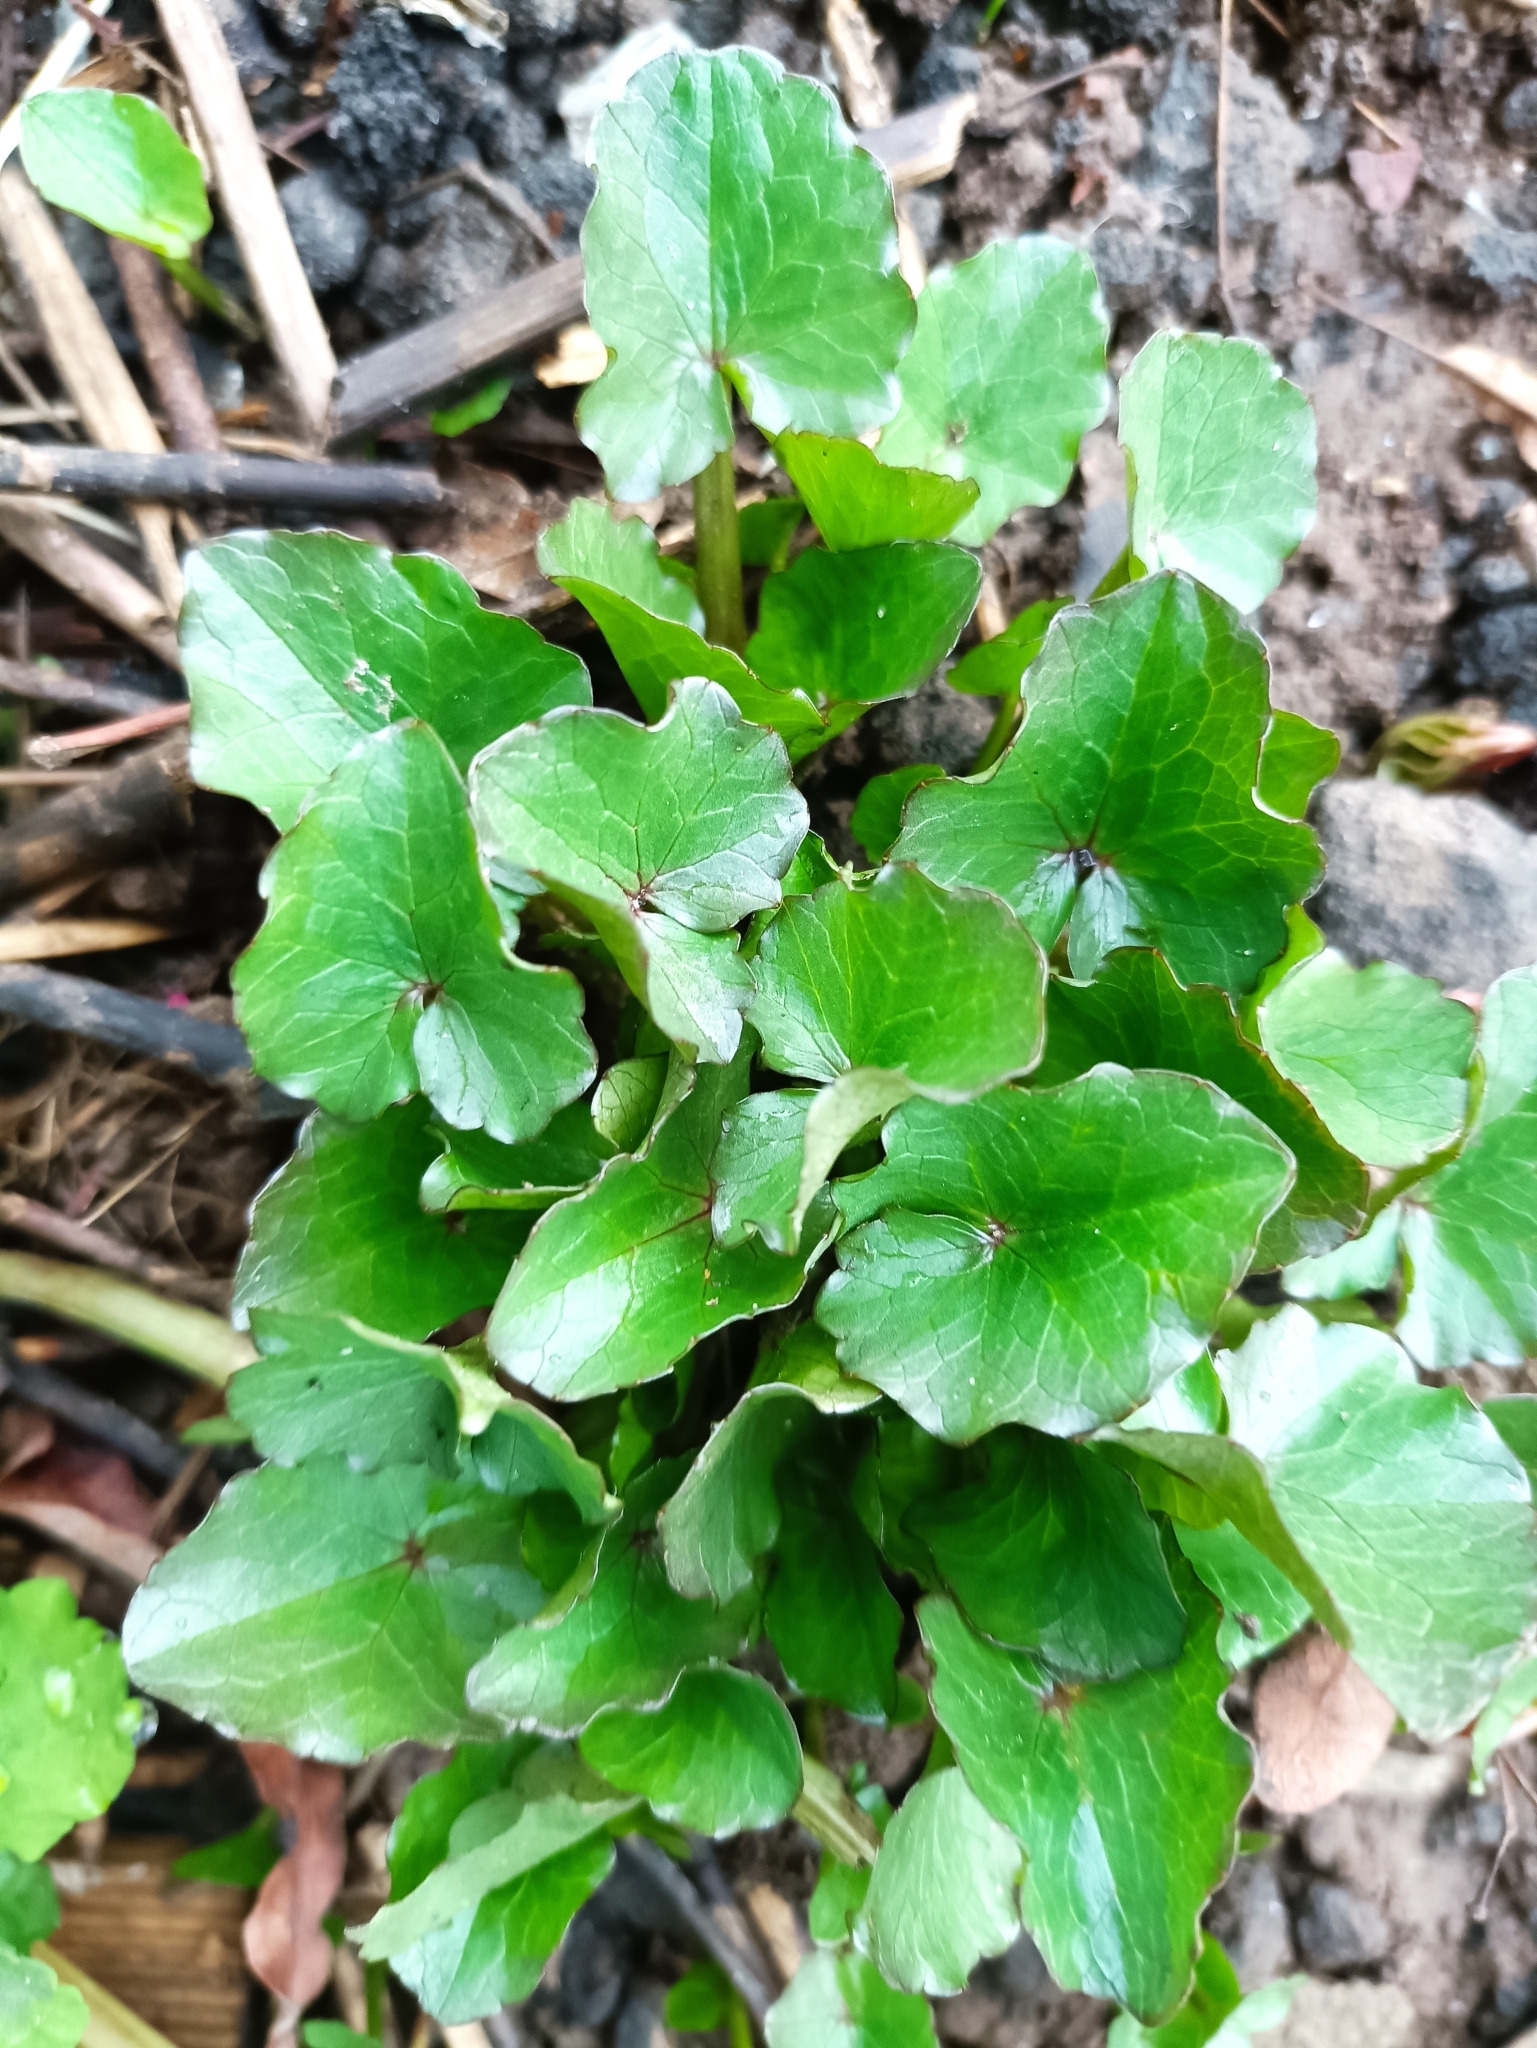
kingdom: Plantae
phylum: Tracheophyta
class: Magnoliopsida
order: Ranunculales
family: Ranunculaceae
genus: Ficaria
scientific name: Ficaria verna
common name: Lesser celandine
